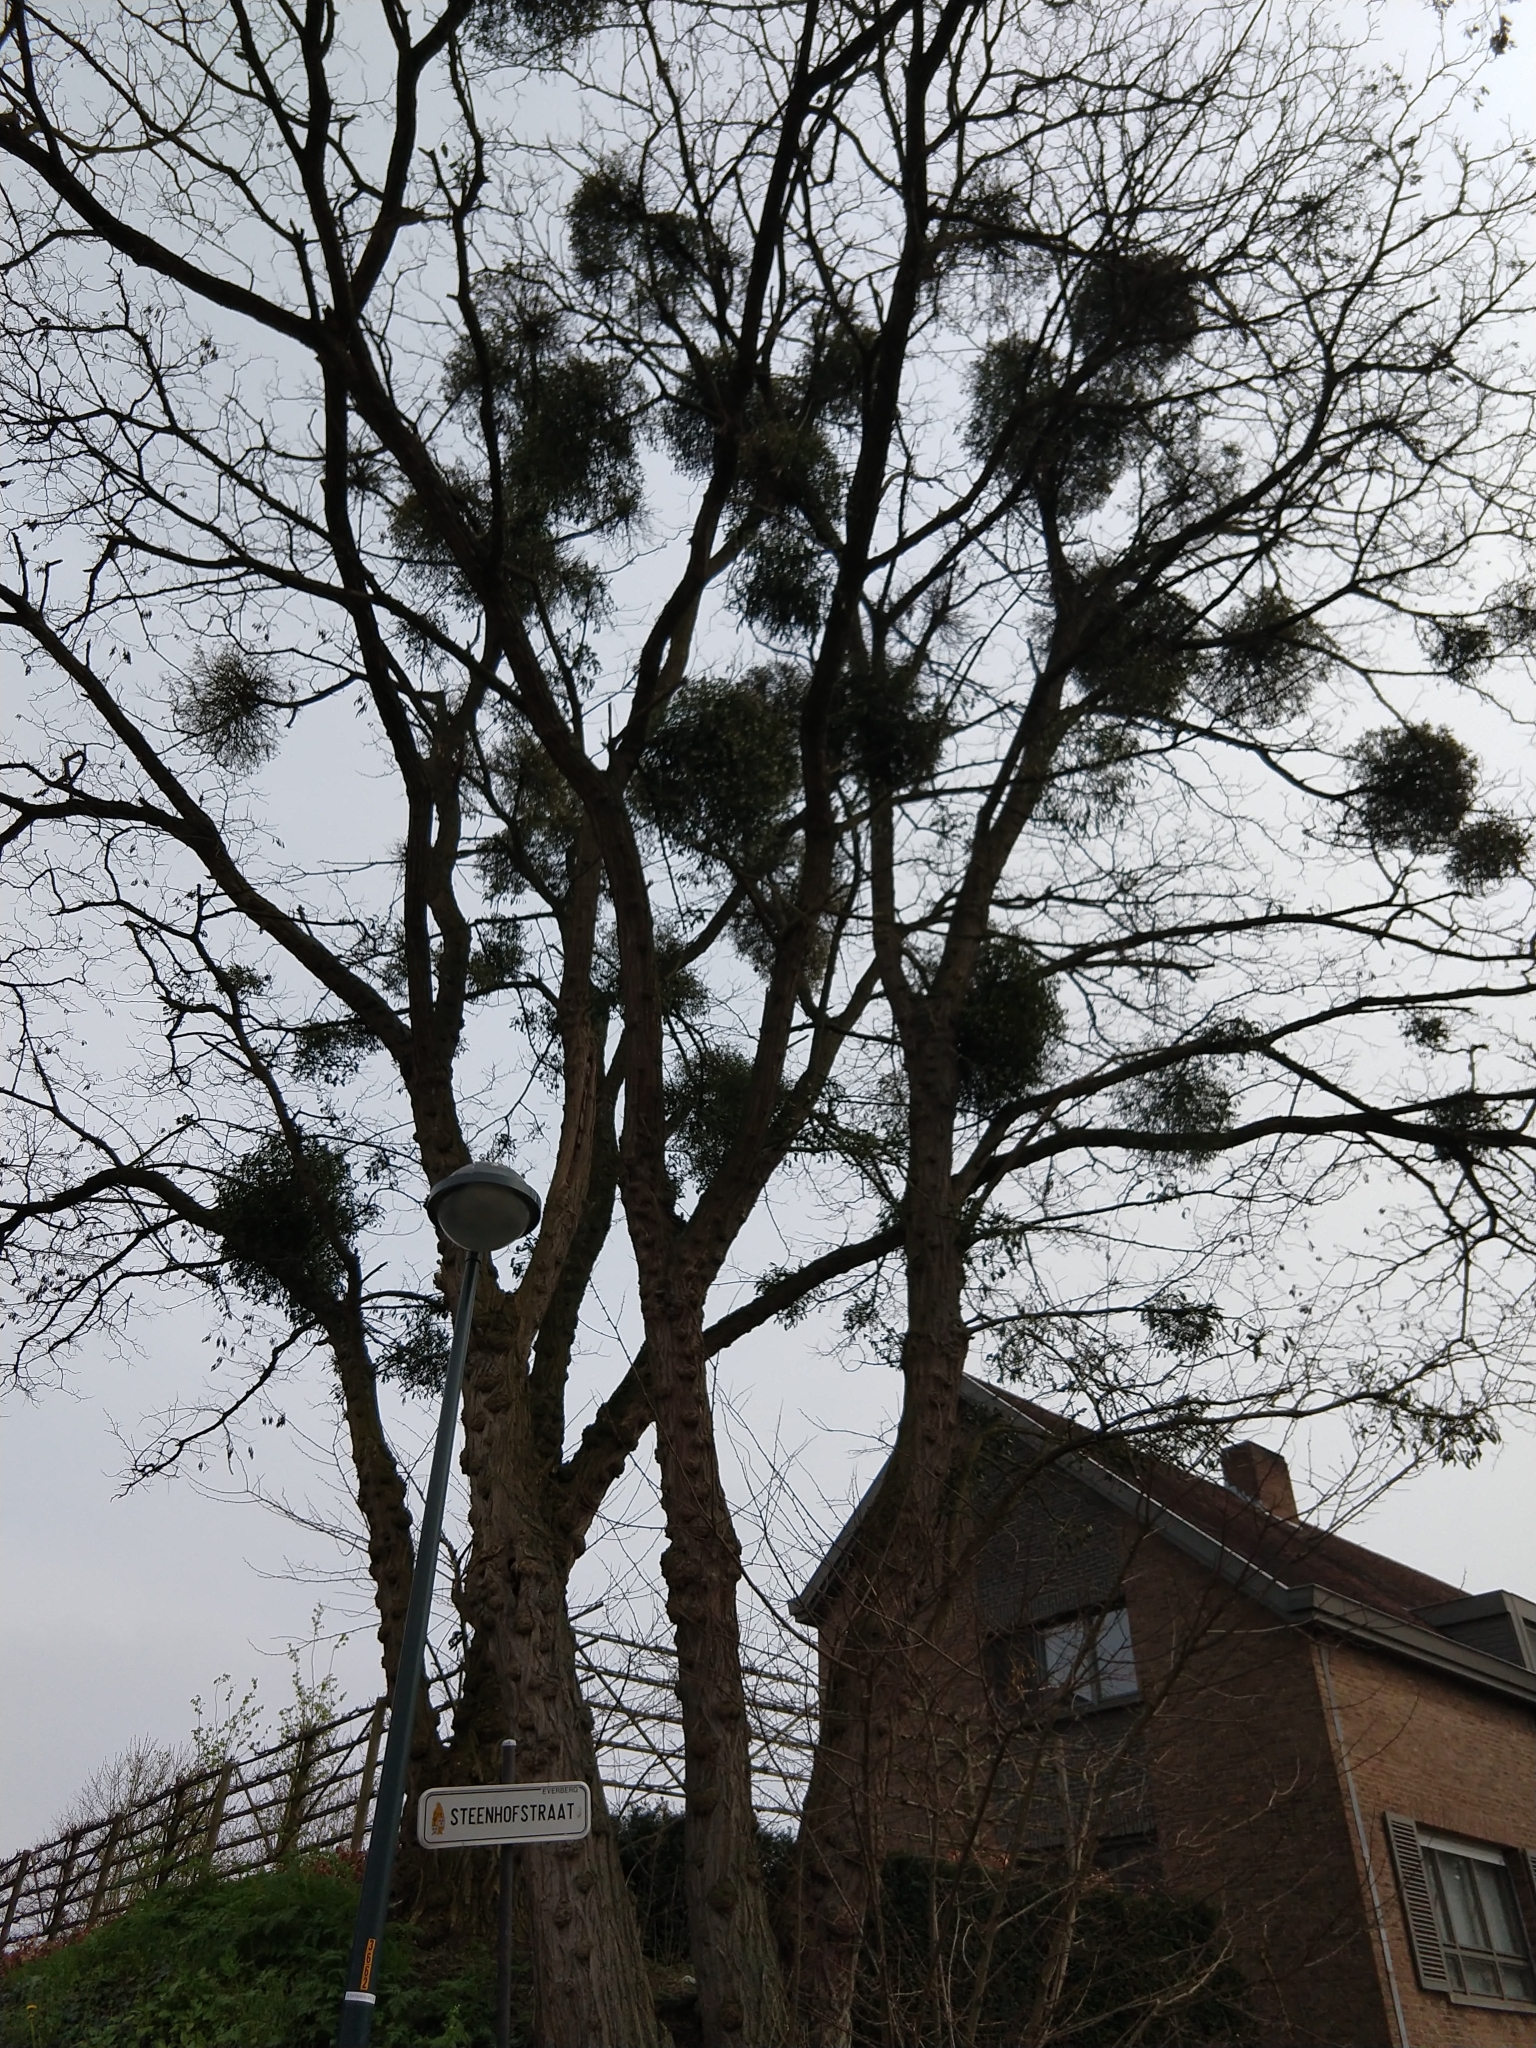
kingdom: Plantae
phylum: Tracheophyta
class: Magnoliopsida
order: Santalales
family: Viscaceae
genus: Viscum
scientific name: Viscum album
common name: Mistletoe
